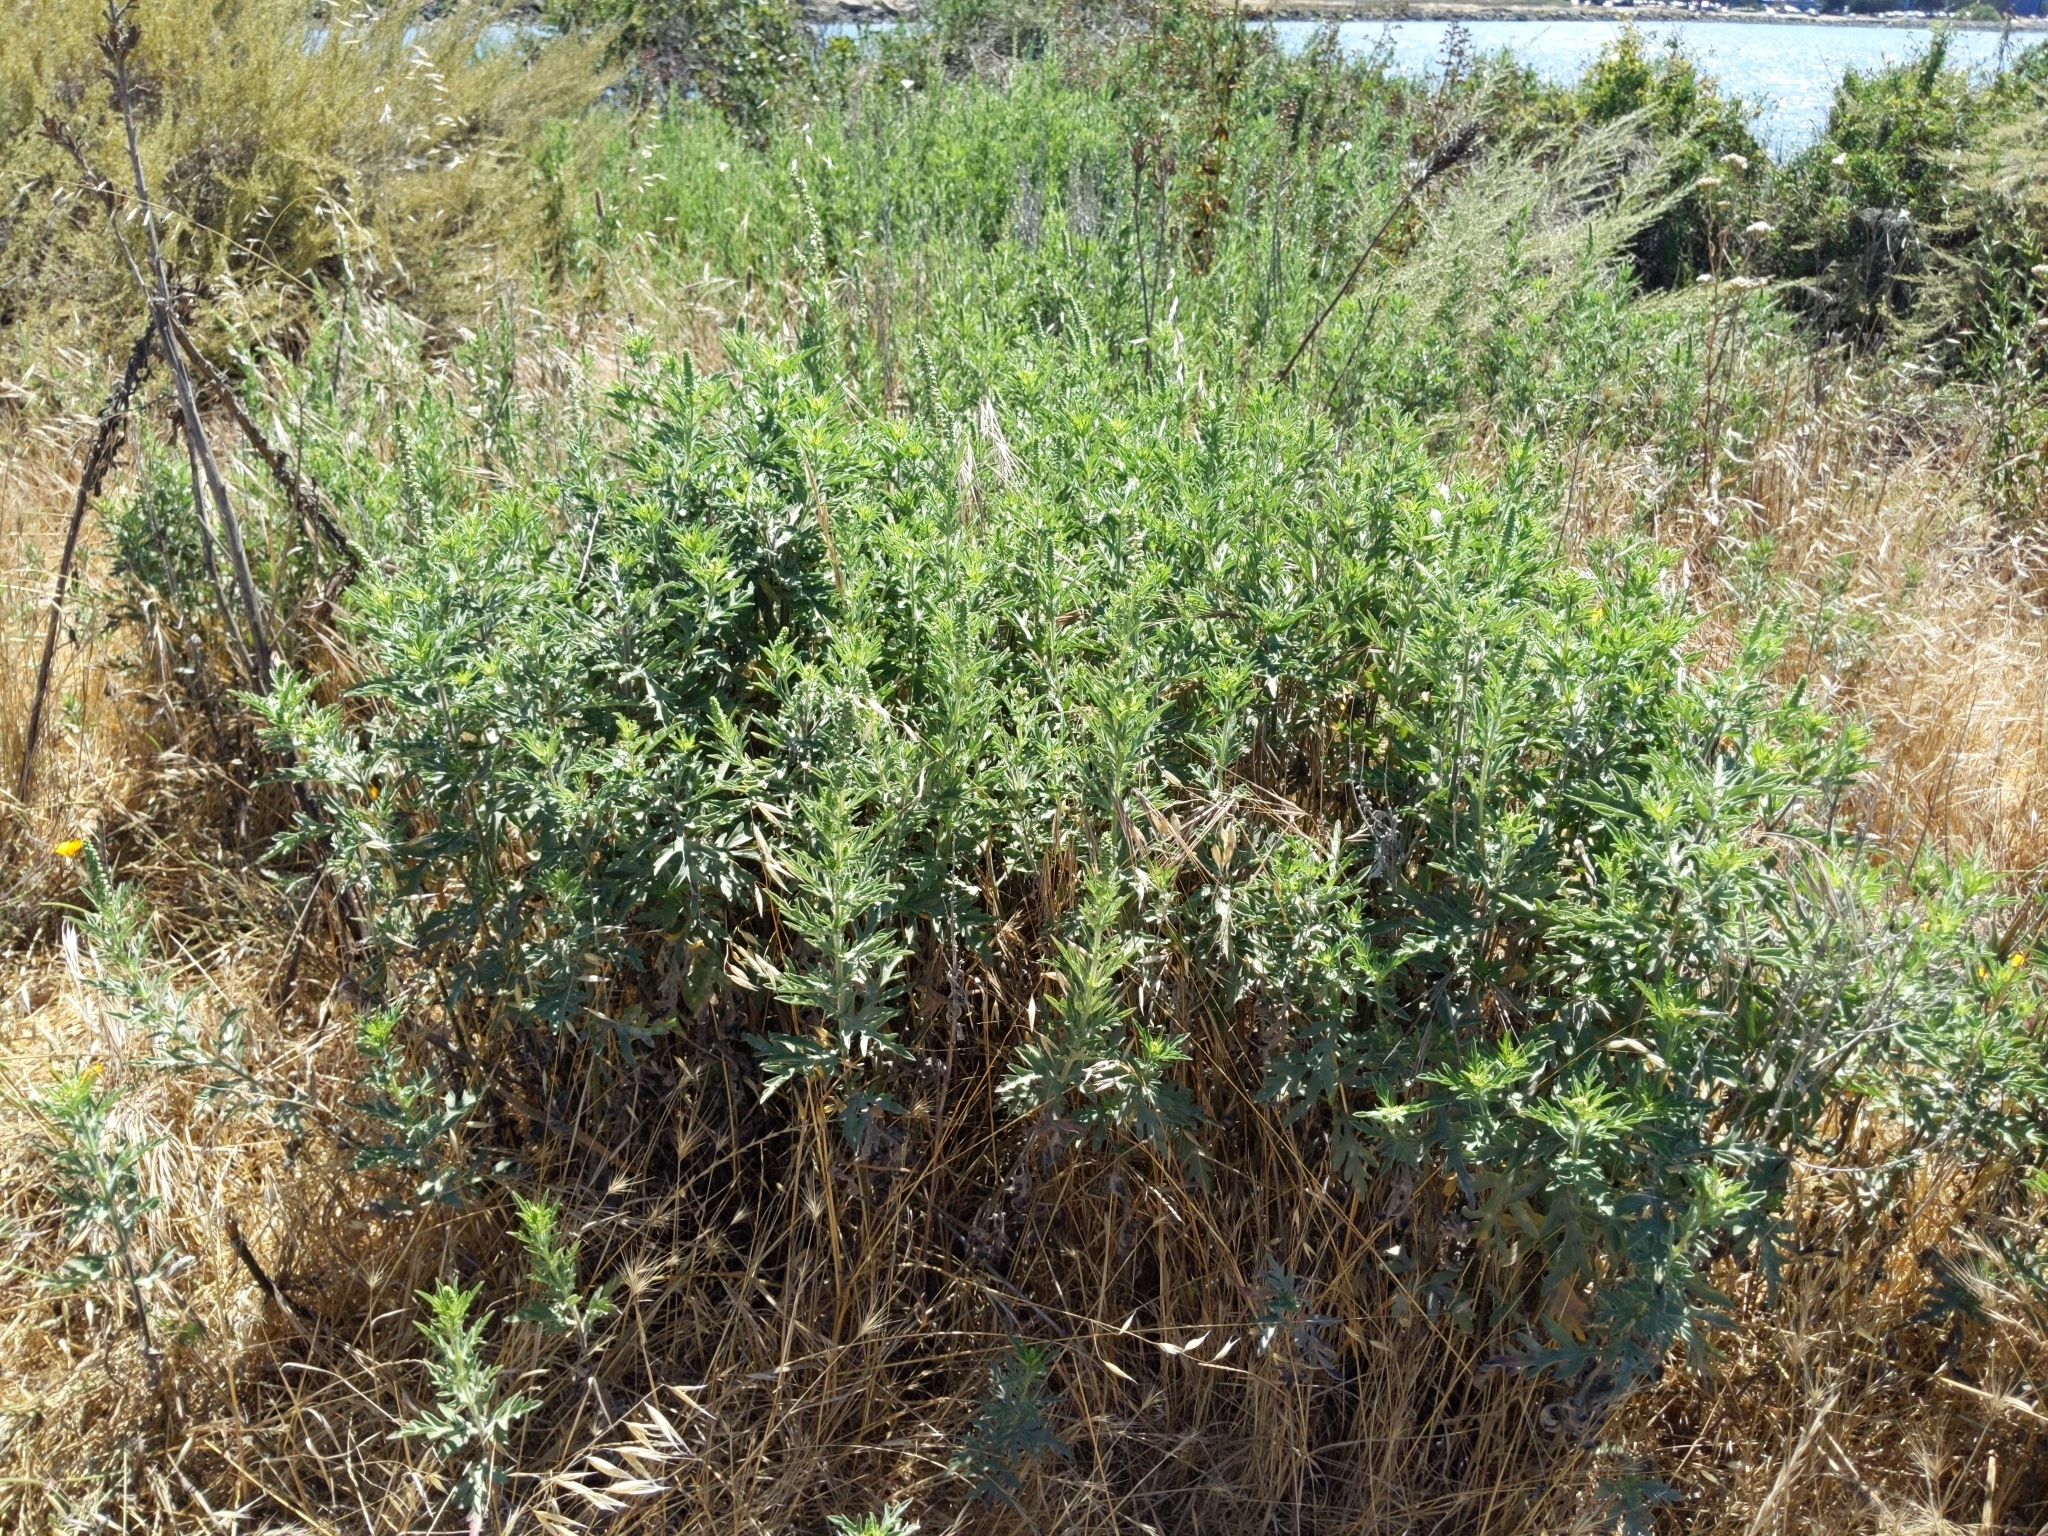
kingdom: Plantae
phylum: Tracheophyta
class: Magnoliopsida
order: Asterales
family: Asteraceae
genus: Ambrosia
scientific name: Ambrosia psilostachya
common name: Perennial ragweed
